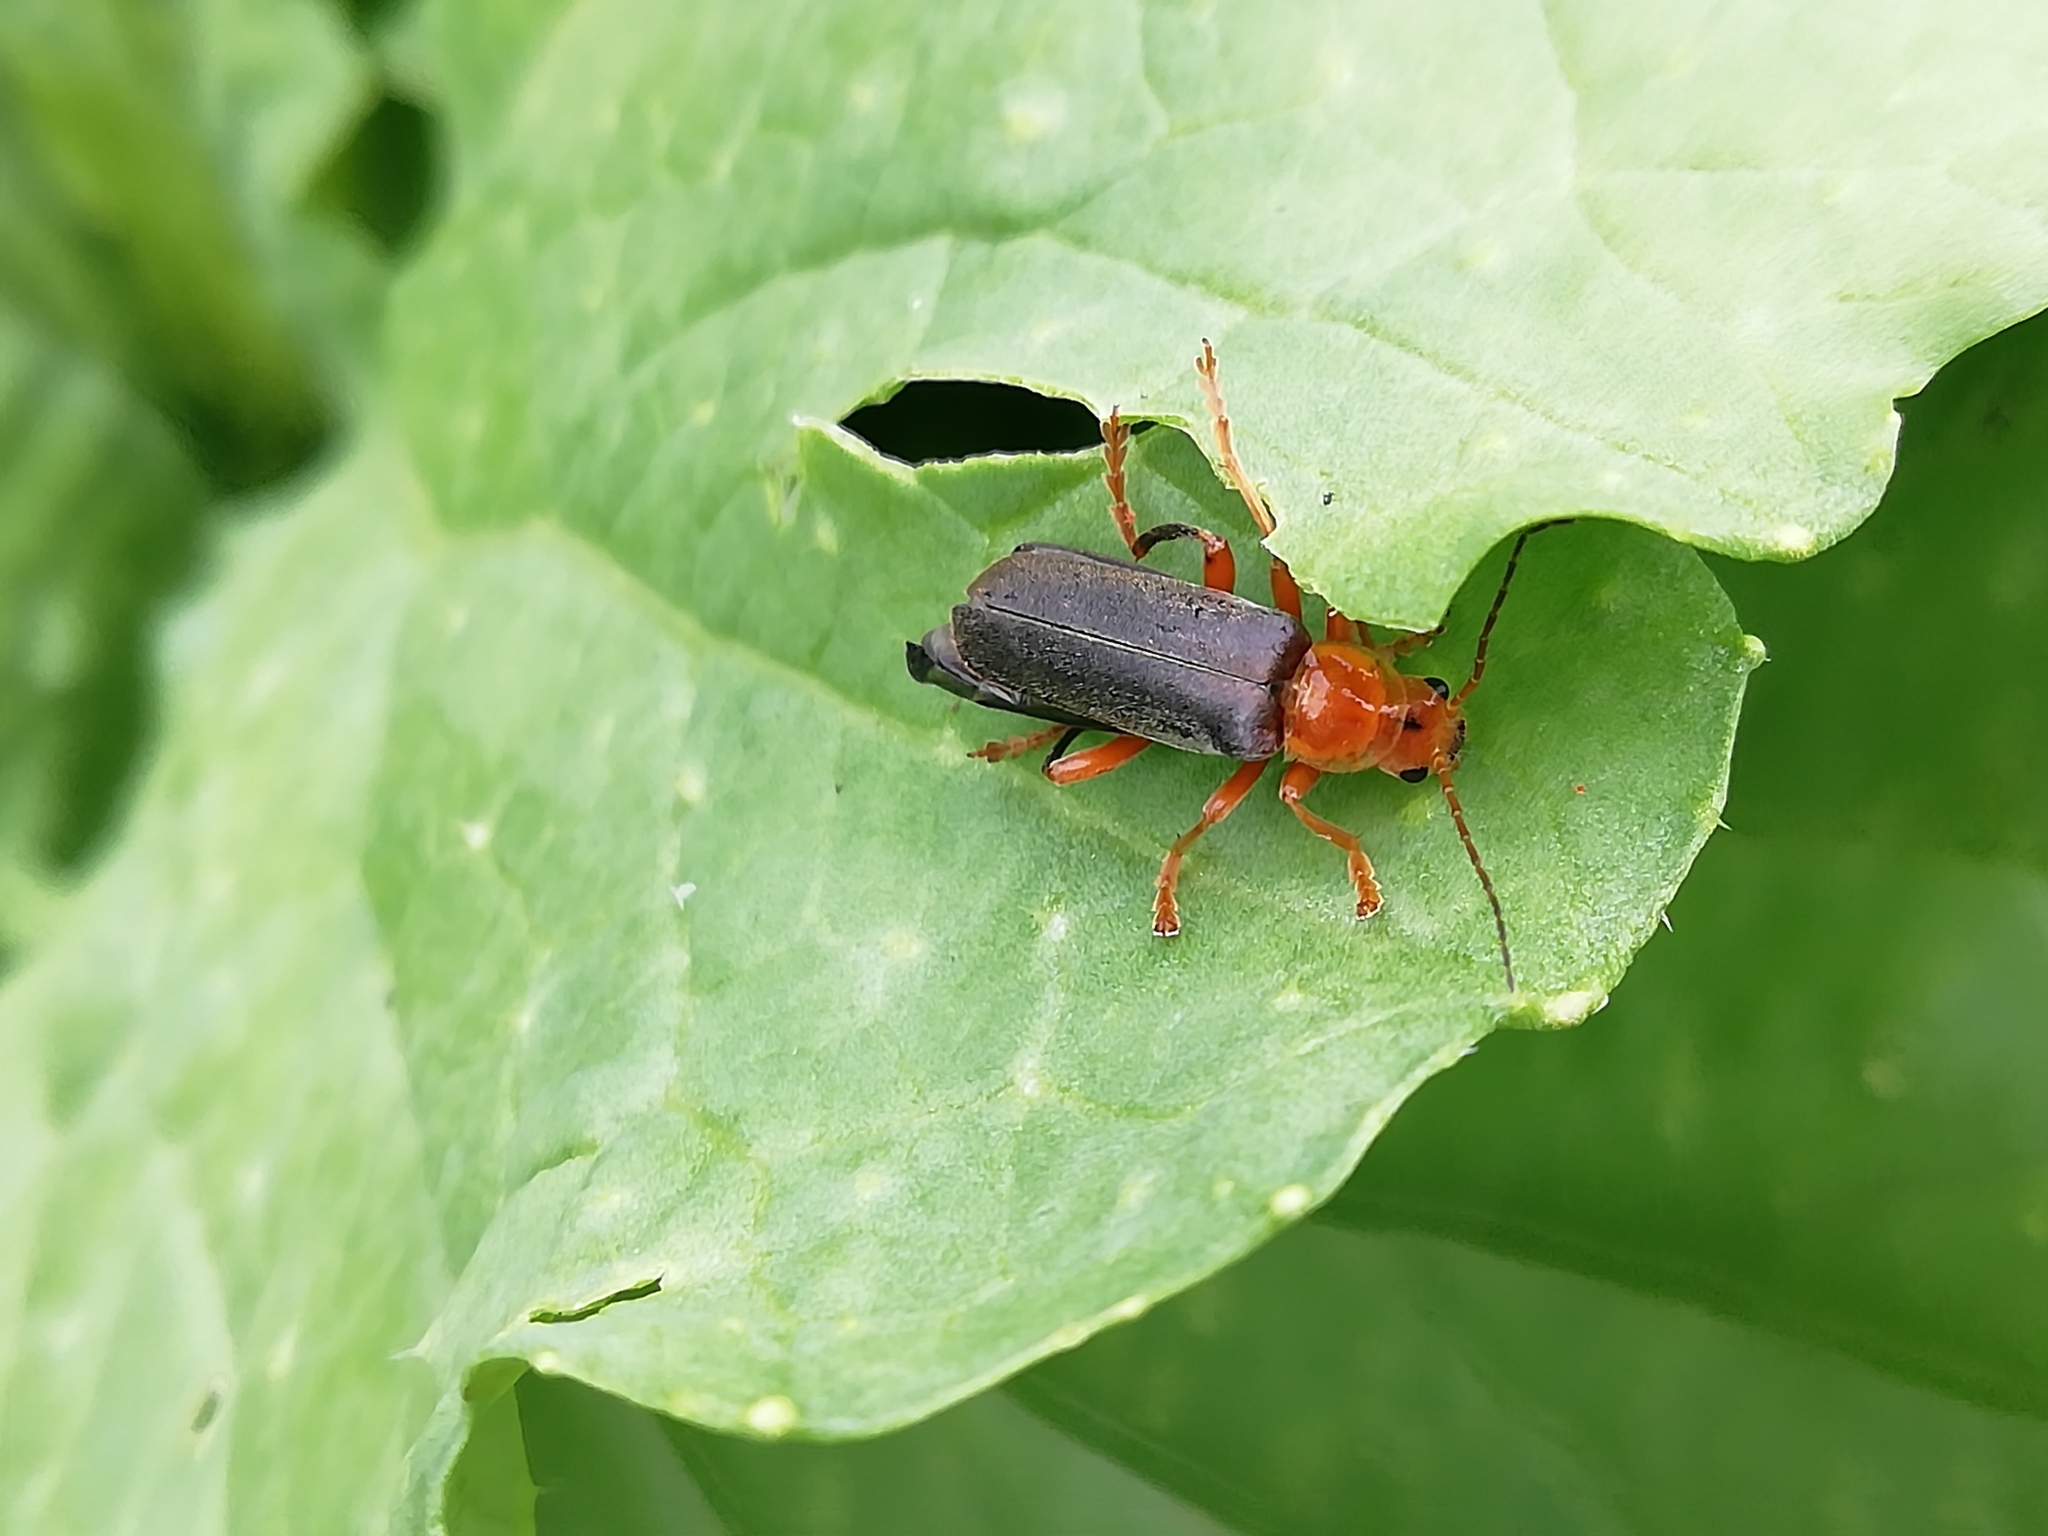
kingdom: Animalia
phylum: Arthropoda
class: Insecta
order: Coleoptera
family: Cantharidae
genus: Cantharis
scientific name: Cantharis livida
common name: Livid soldier beetle
